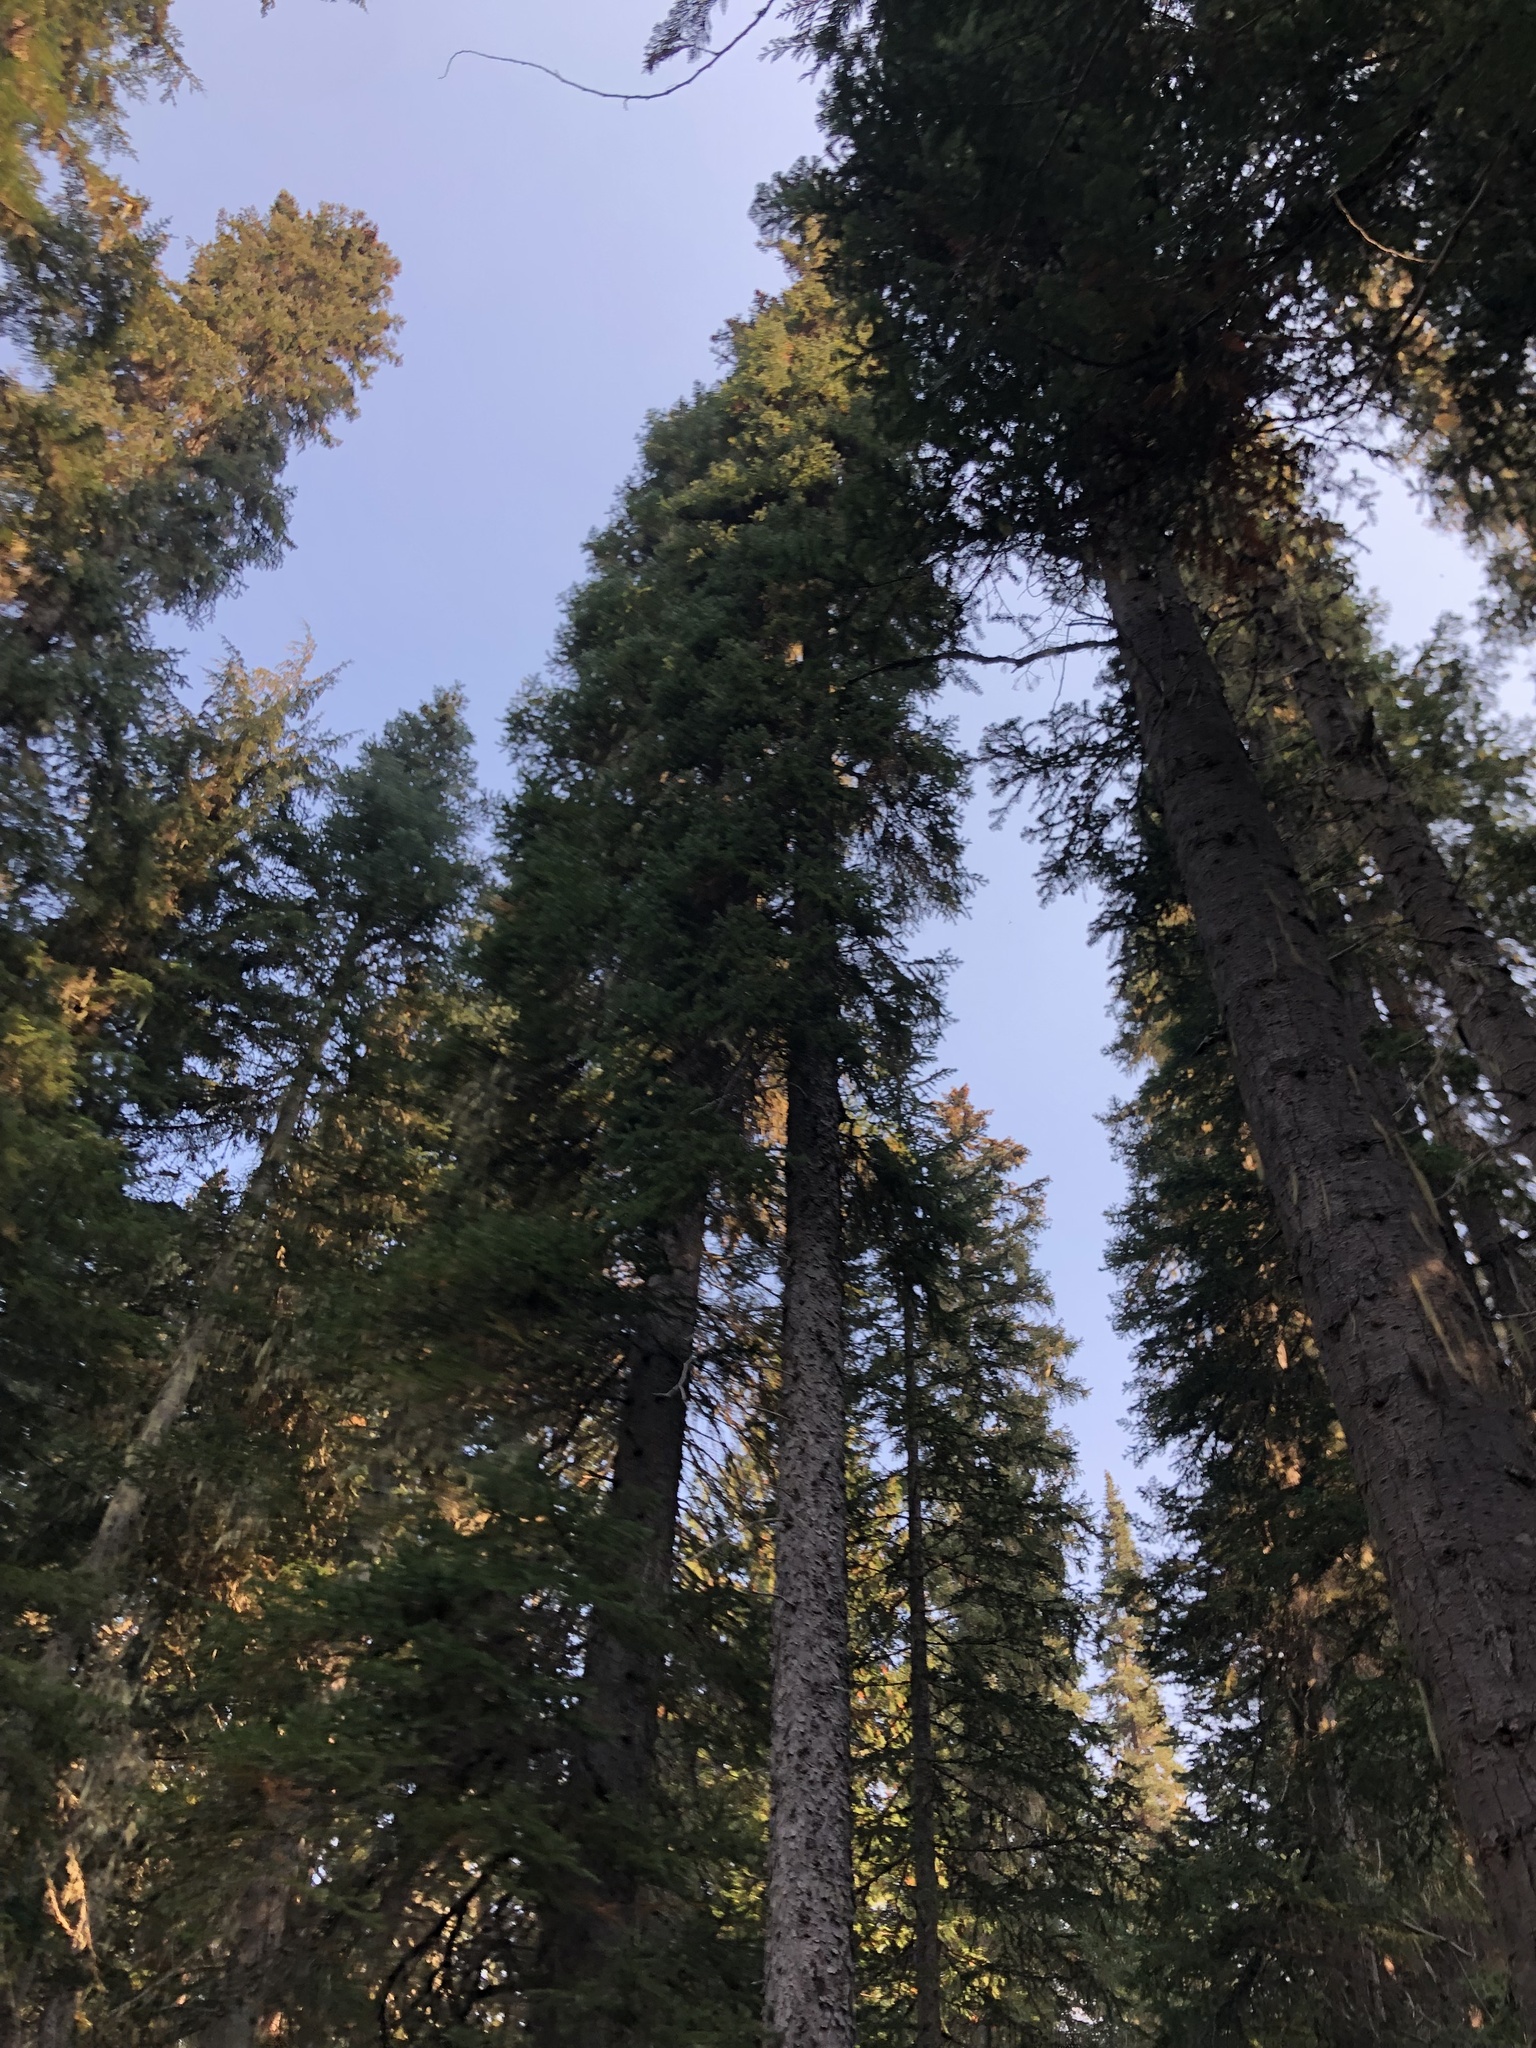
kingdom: Plantae
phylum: Tracheophyta
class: Pinopsida
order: Pinales
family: Pinaceae
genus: Picea
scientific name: Picea engelmannii
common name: Engelmann spruce
